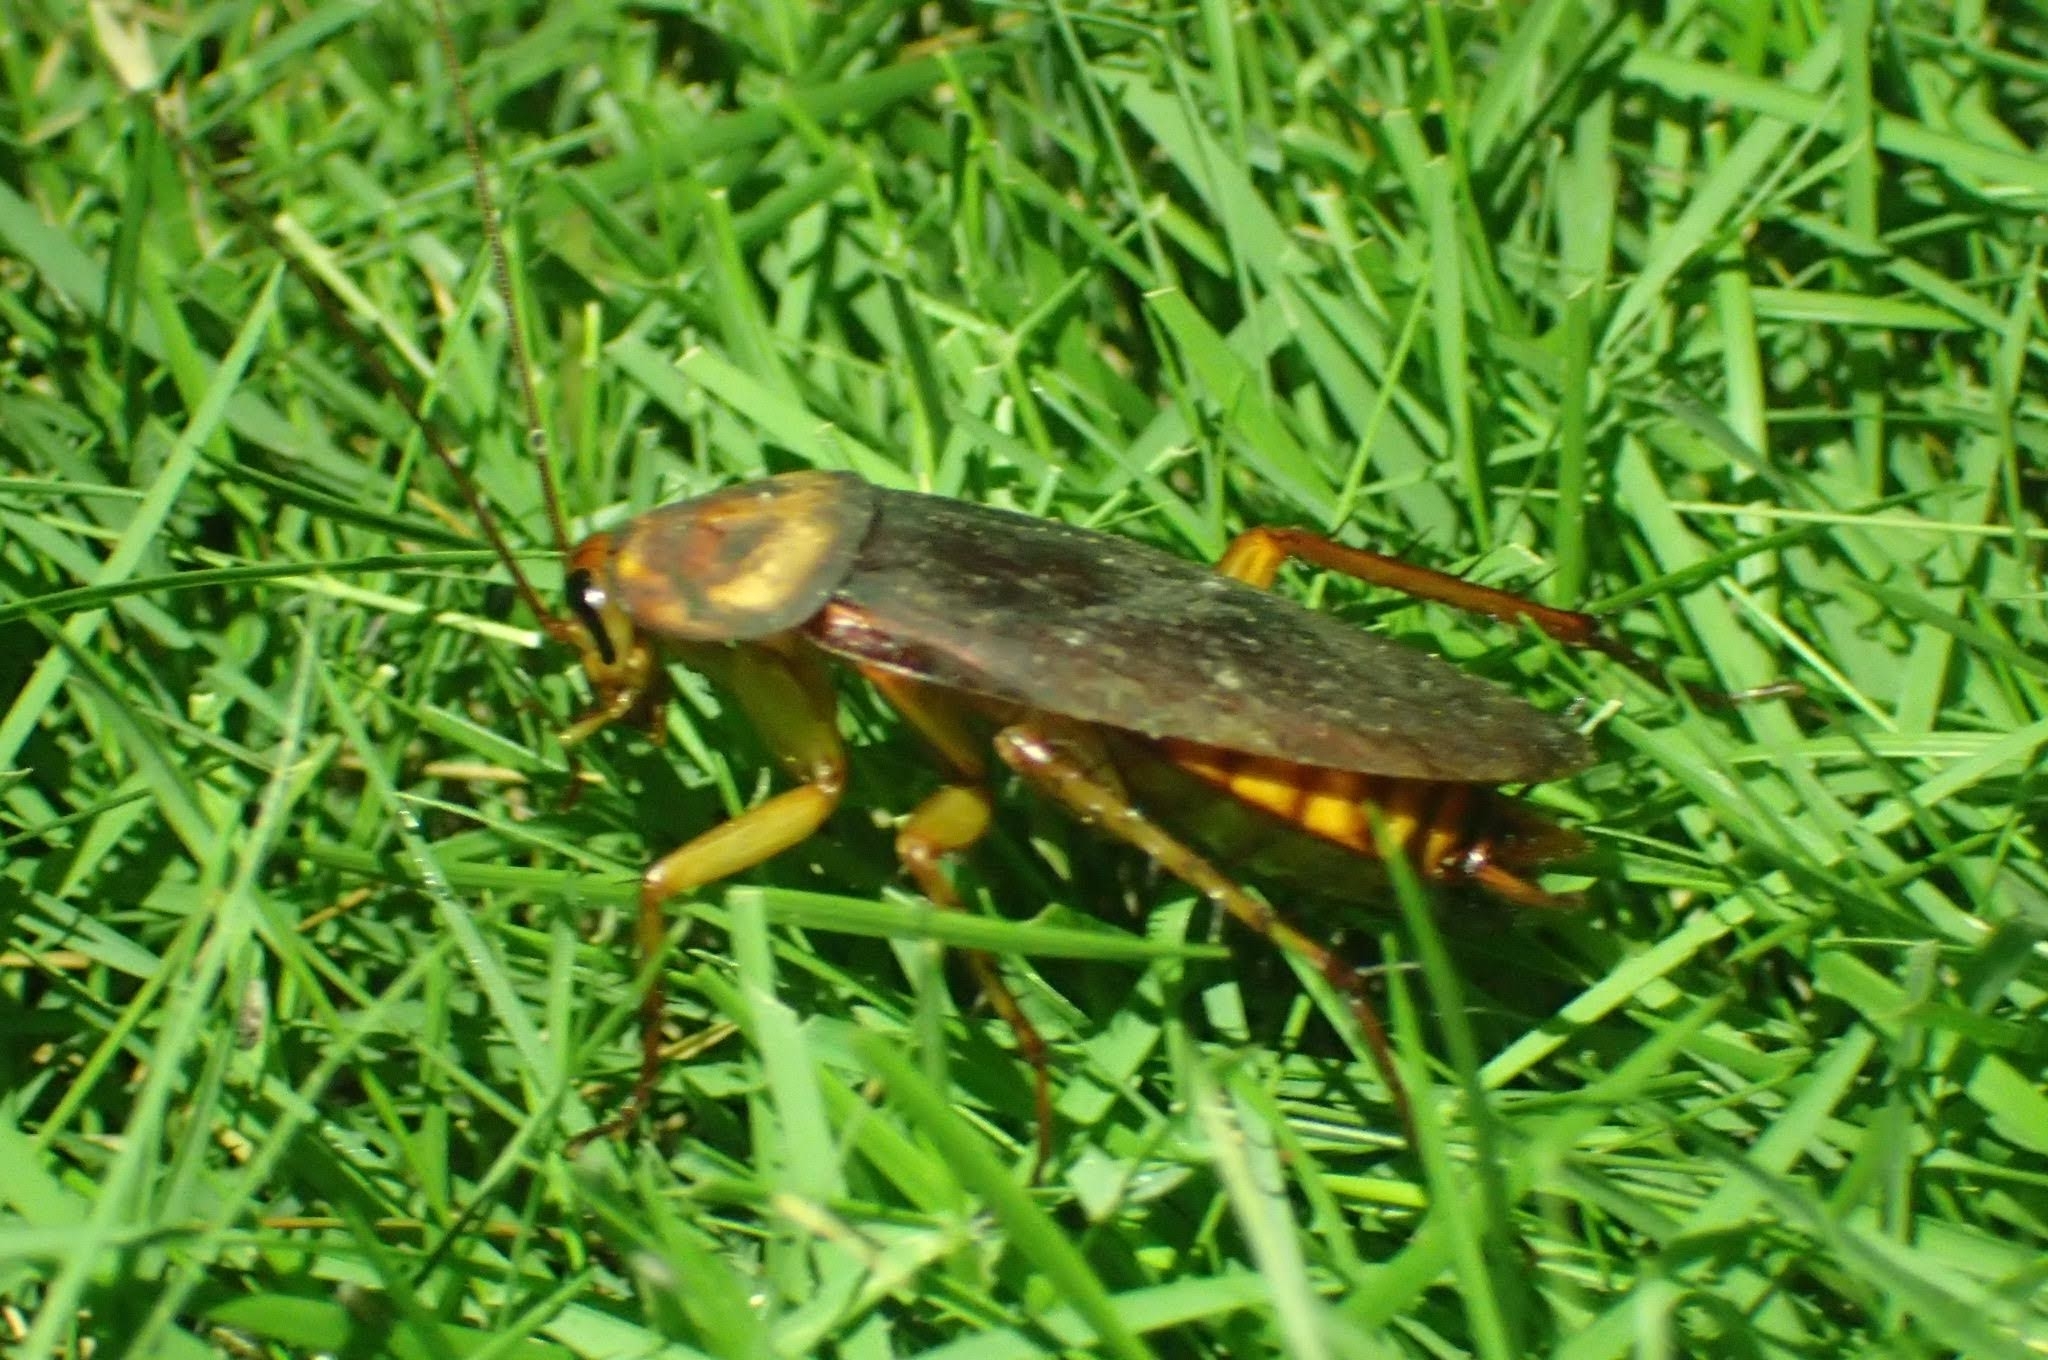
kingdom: Animalia
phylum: Arthropoda
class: Insecta
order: Blattodea
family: Blattidae
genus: Periplaneta
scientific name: Periplaneta americana
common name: American cockroach
